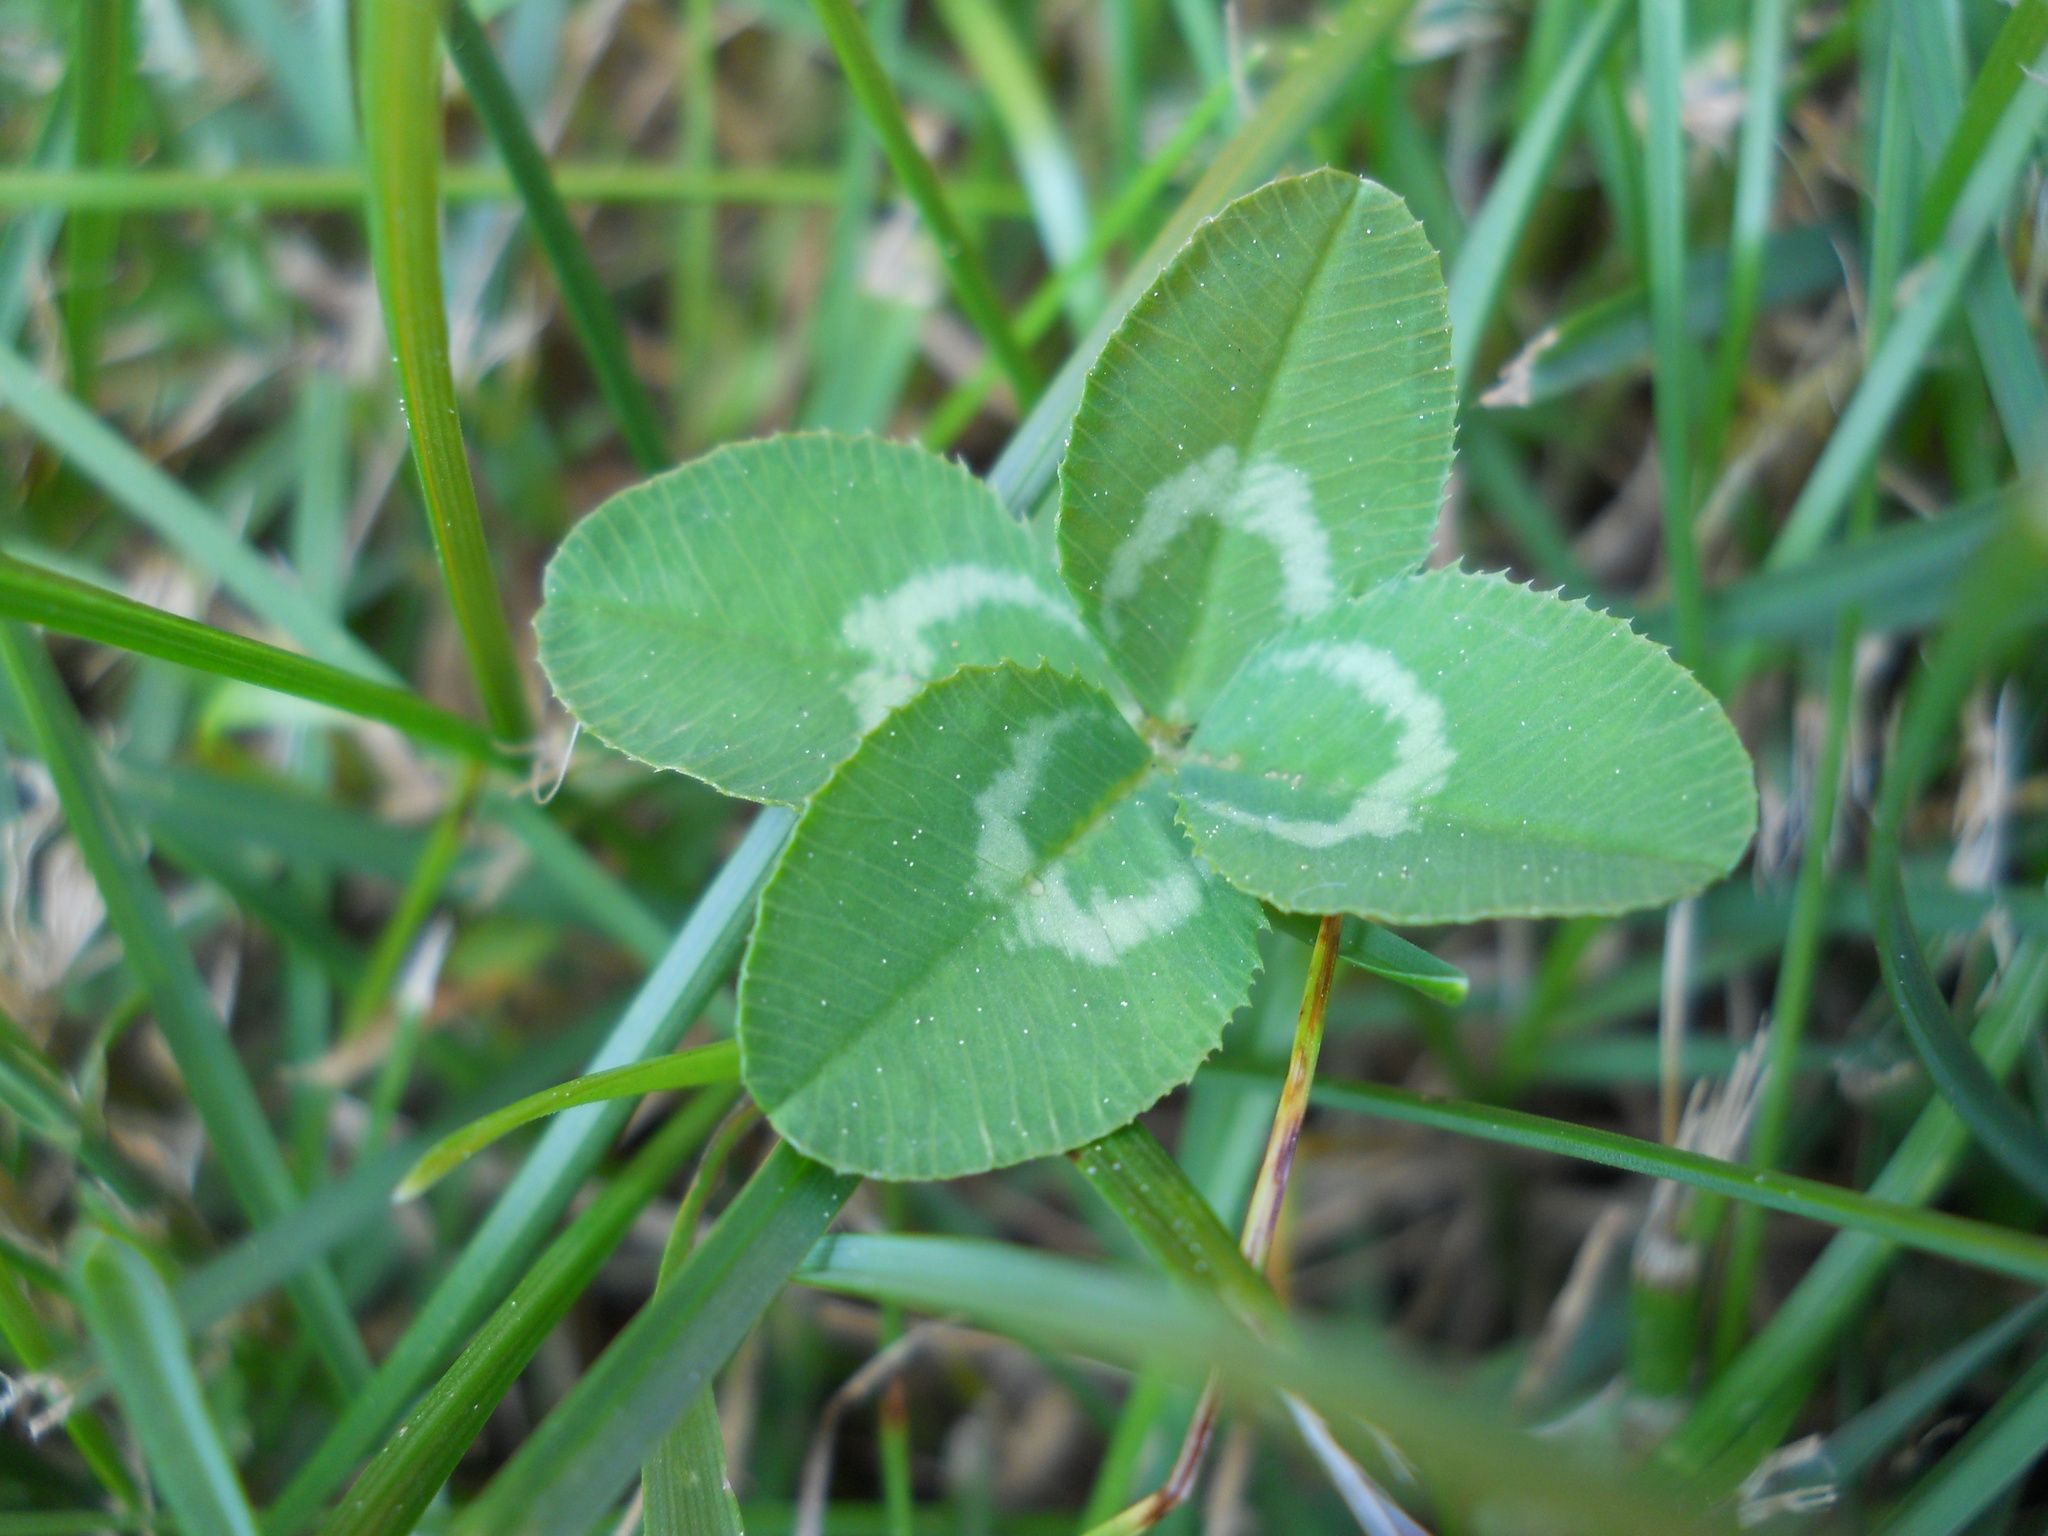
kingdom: Plantae
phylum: Tracheophyta
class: Magnoliopsida
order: Fabales
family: Fabaceae
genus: Trifolium
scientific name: Trifolium repens
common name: White clover
